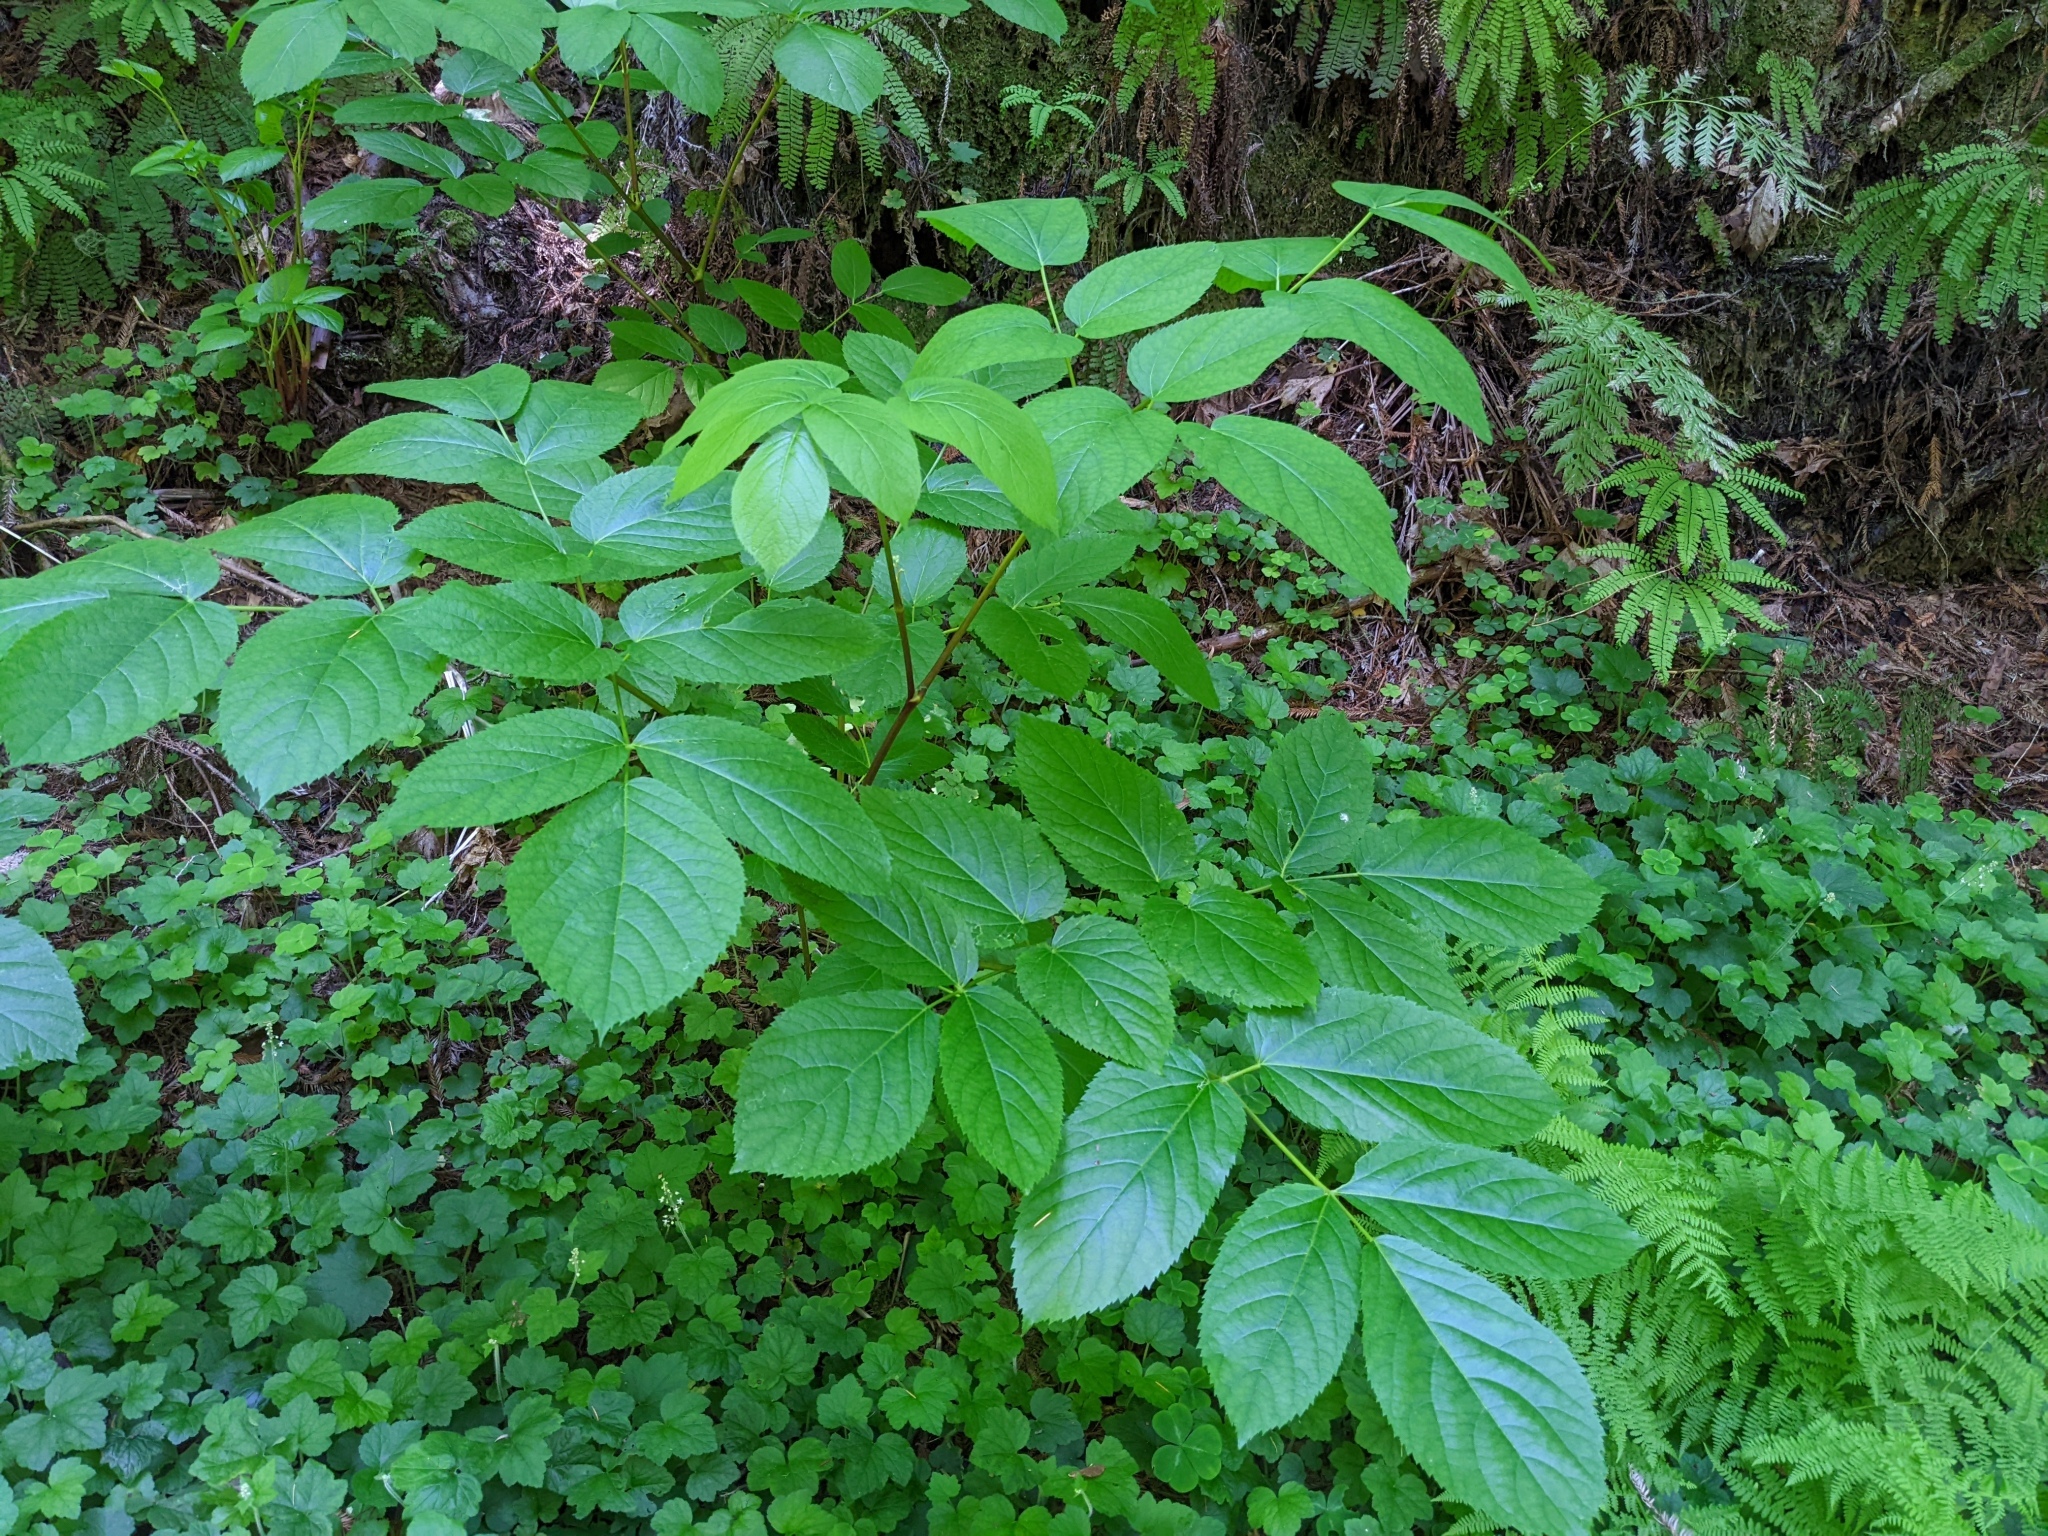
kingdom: Plantae
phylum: Tracheophyta
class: Magnoliopsida
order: Apiales
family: Araliaceae
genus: Aralia
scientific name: Aralia californica
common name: California-ginseng
